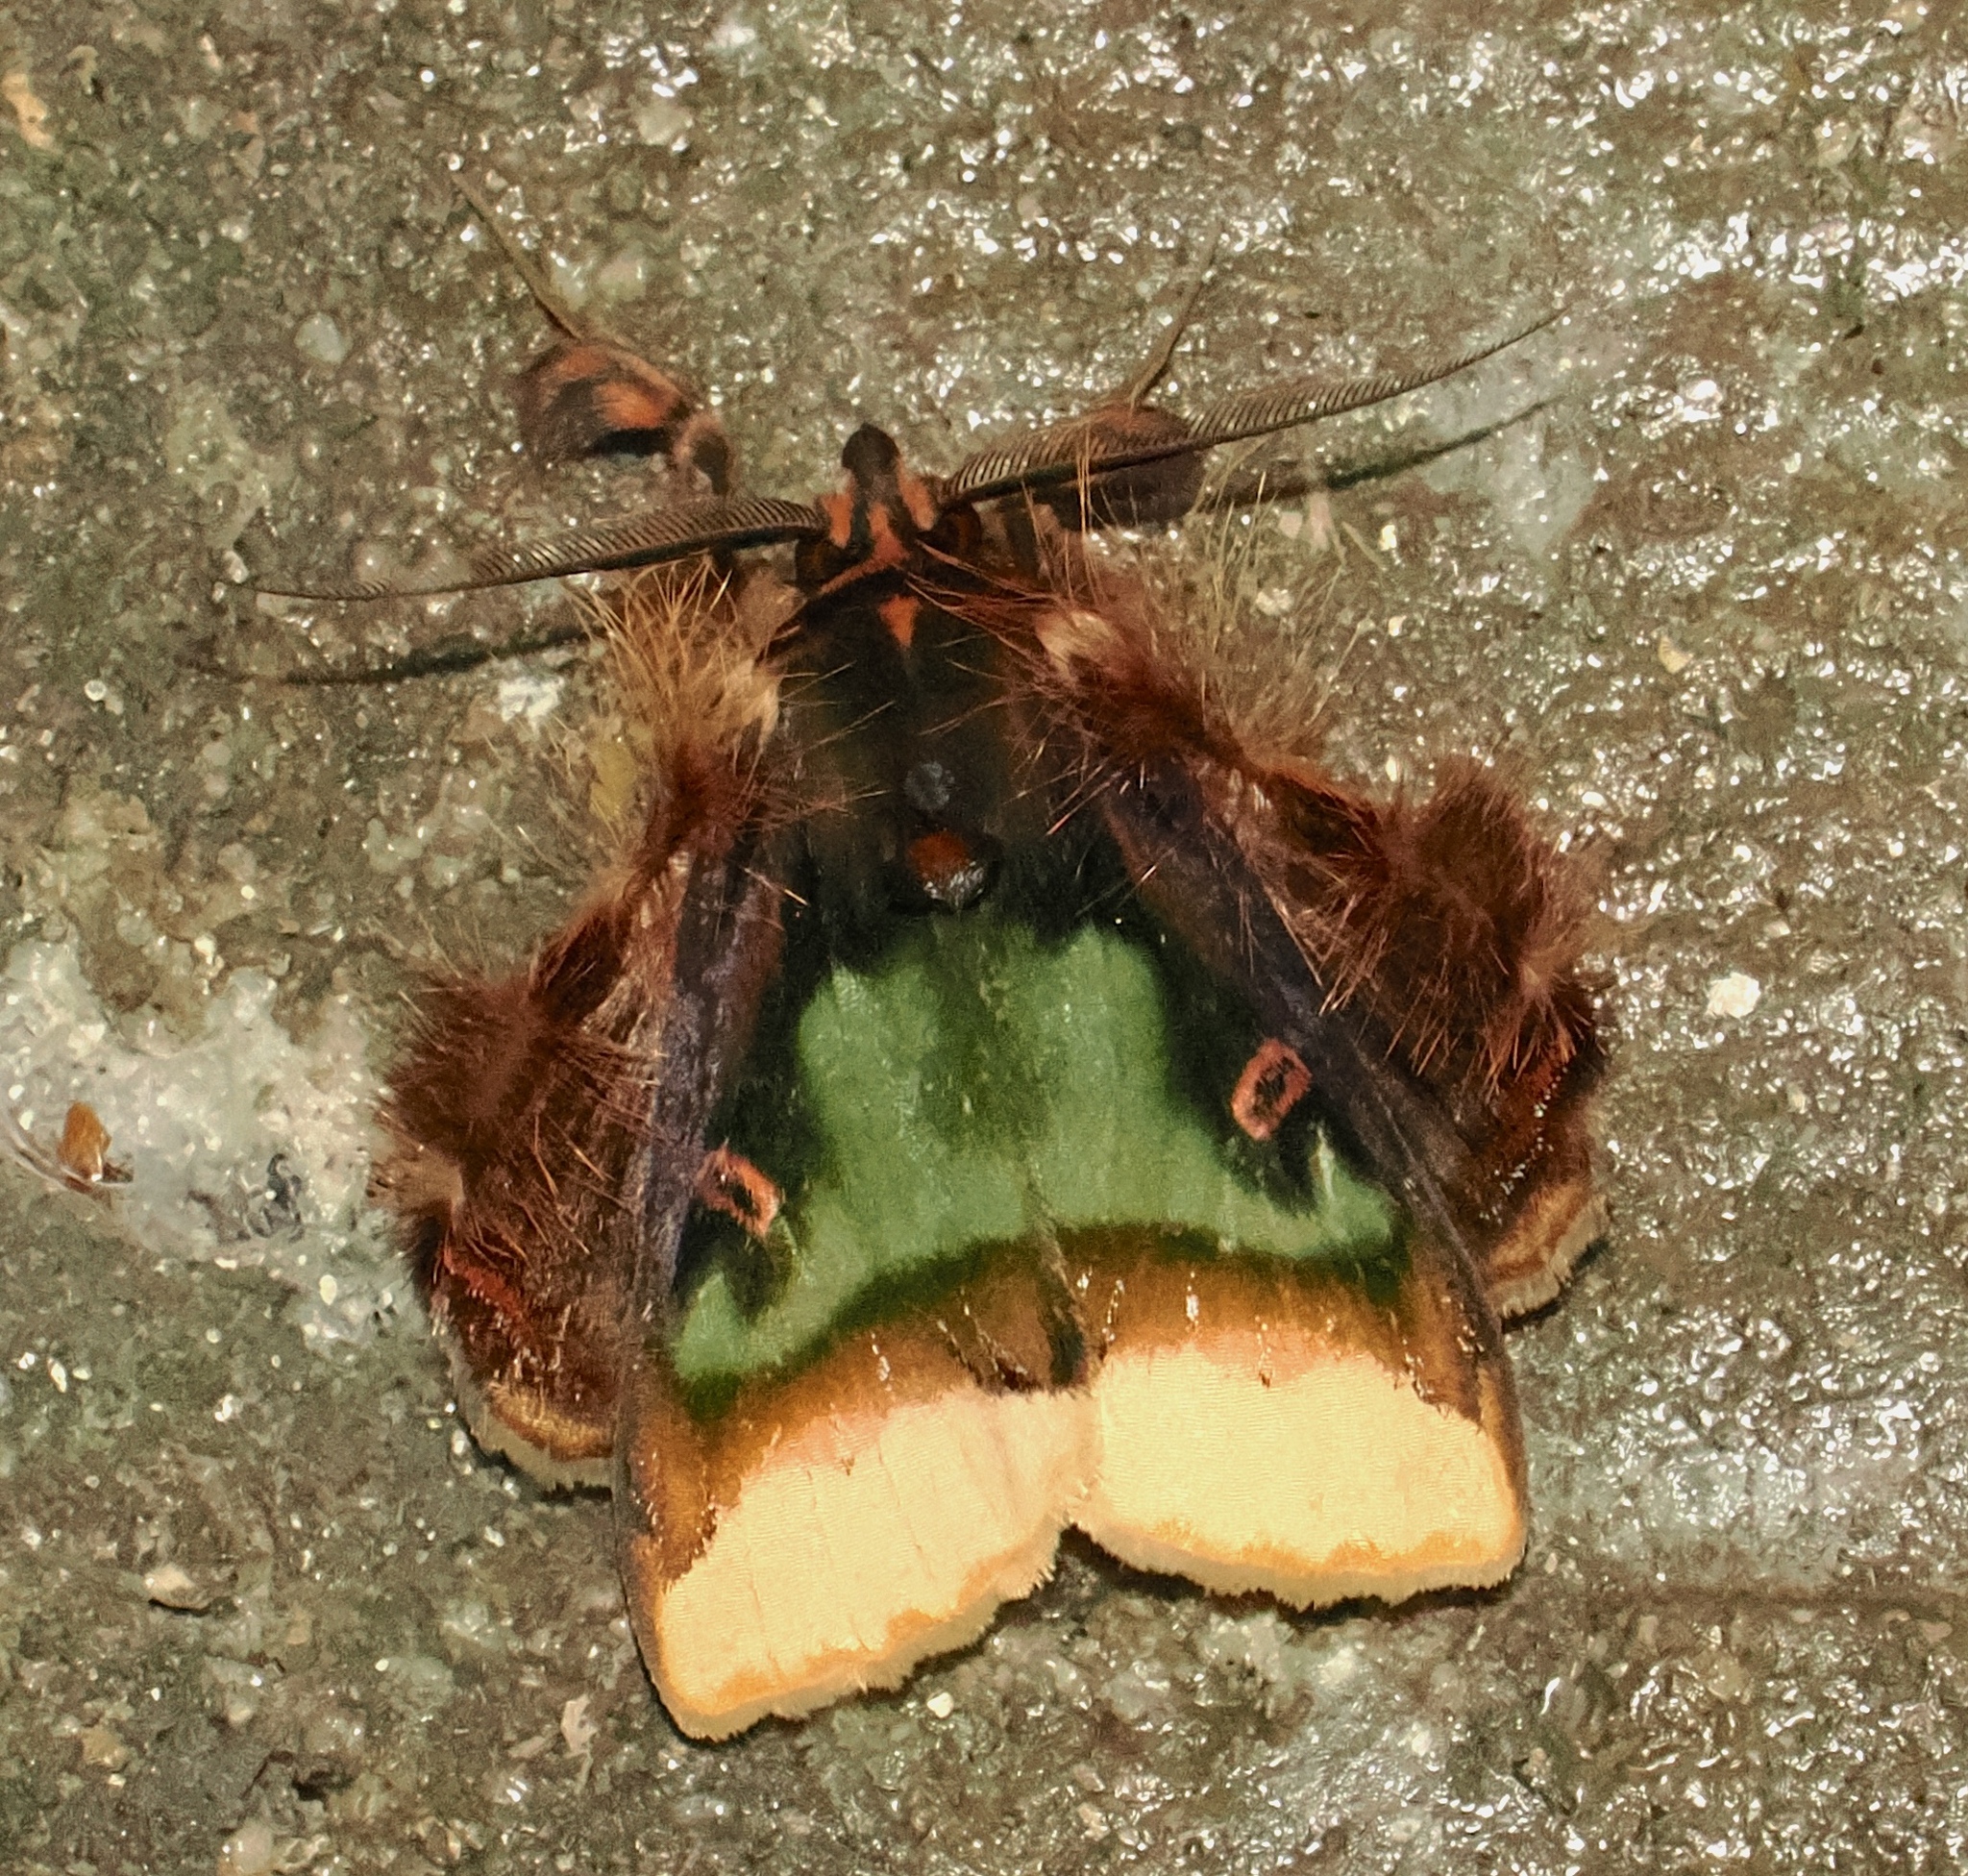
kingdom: Animalia
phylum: Arthropoda
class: Insecta
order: Lepidoptera
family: Erebidae
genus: Ceroctena
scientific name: Ceroctena amynta
